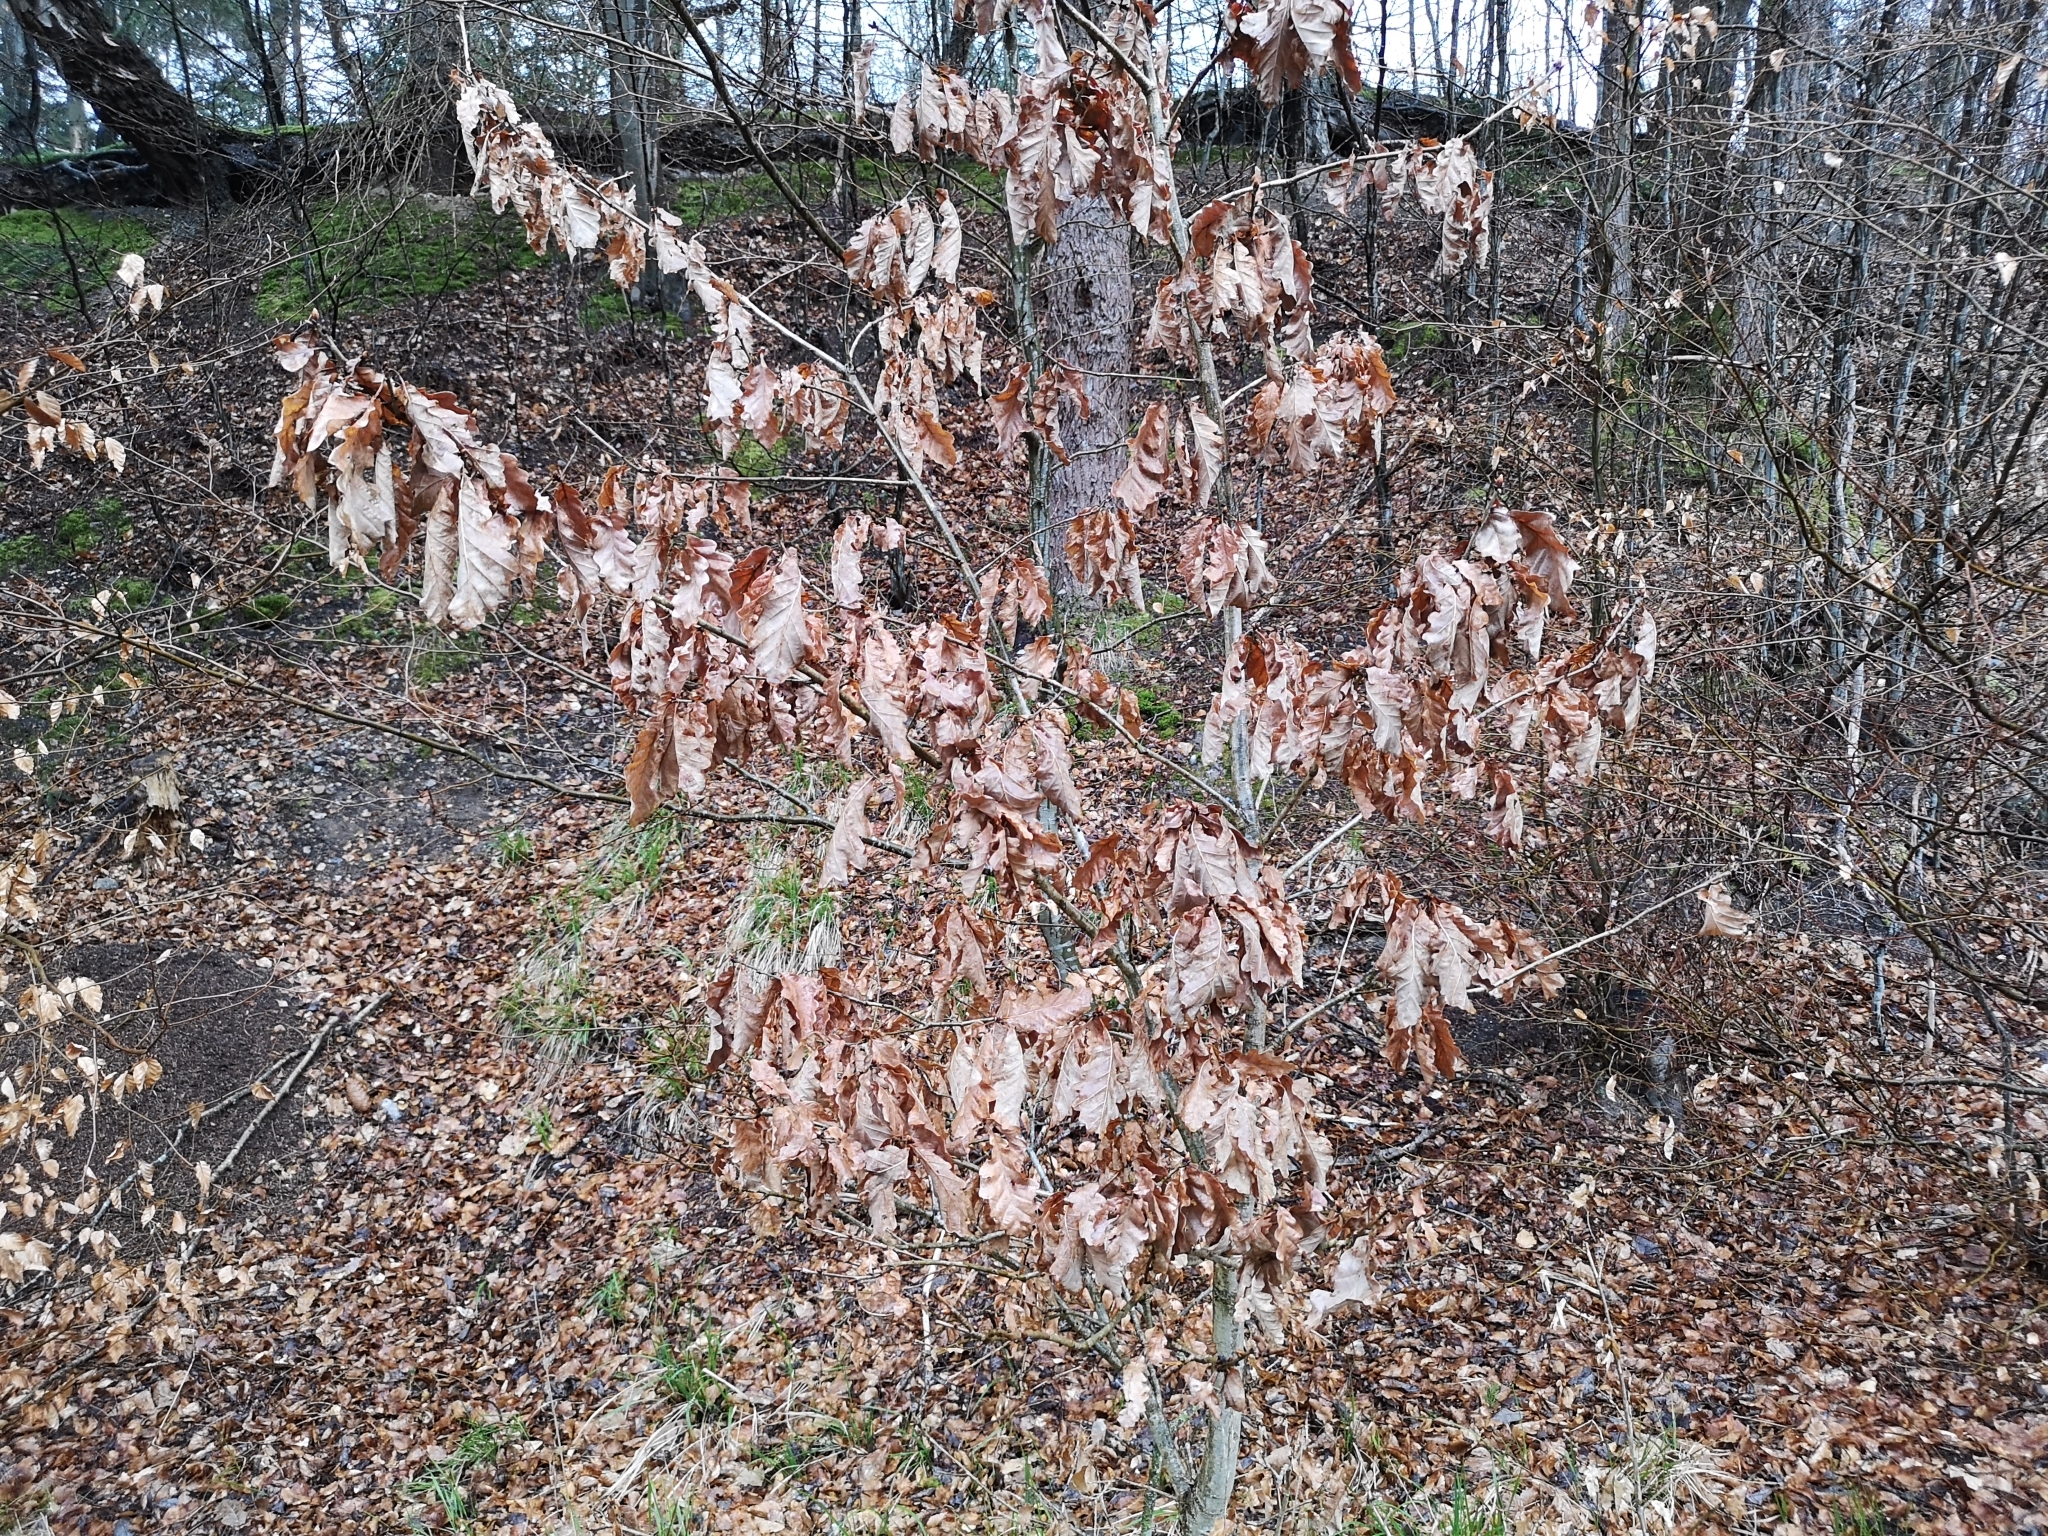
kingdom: Plantae
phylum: Tracheophyta
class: Magnoliopsida
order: Fagales
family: Fagaceae
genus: Quercus
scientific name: Quercus petraea
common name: Sessile oak
